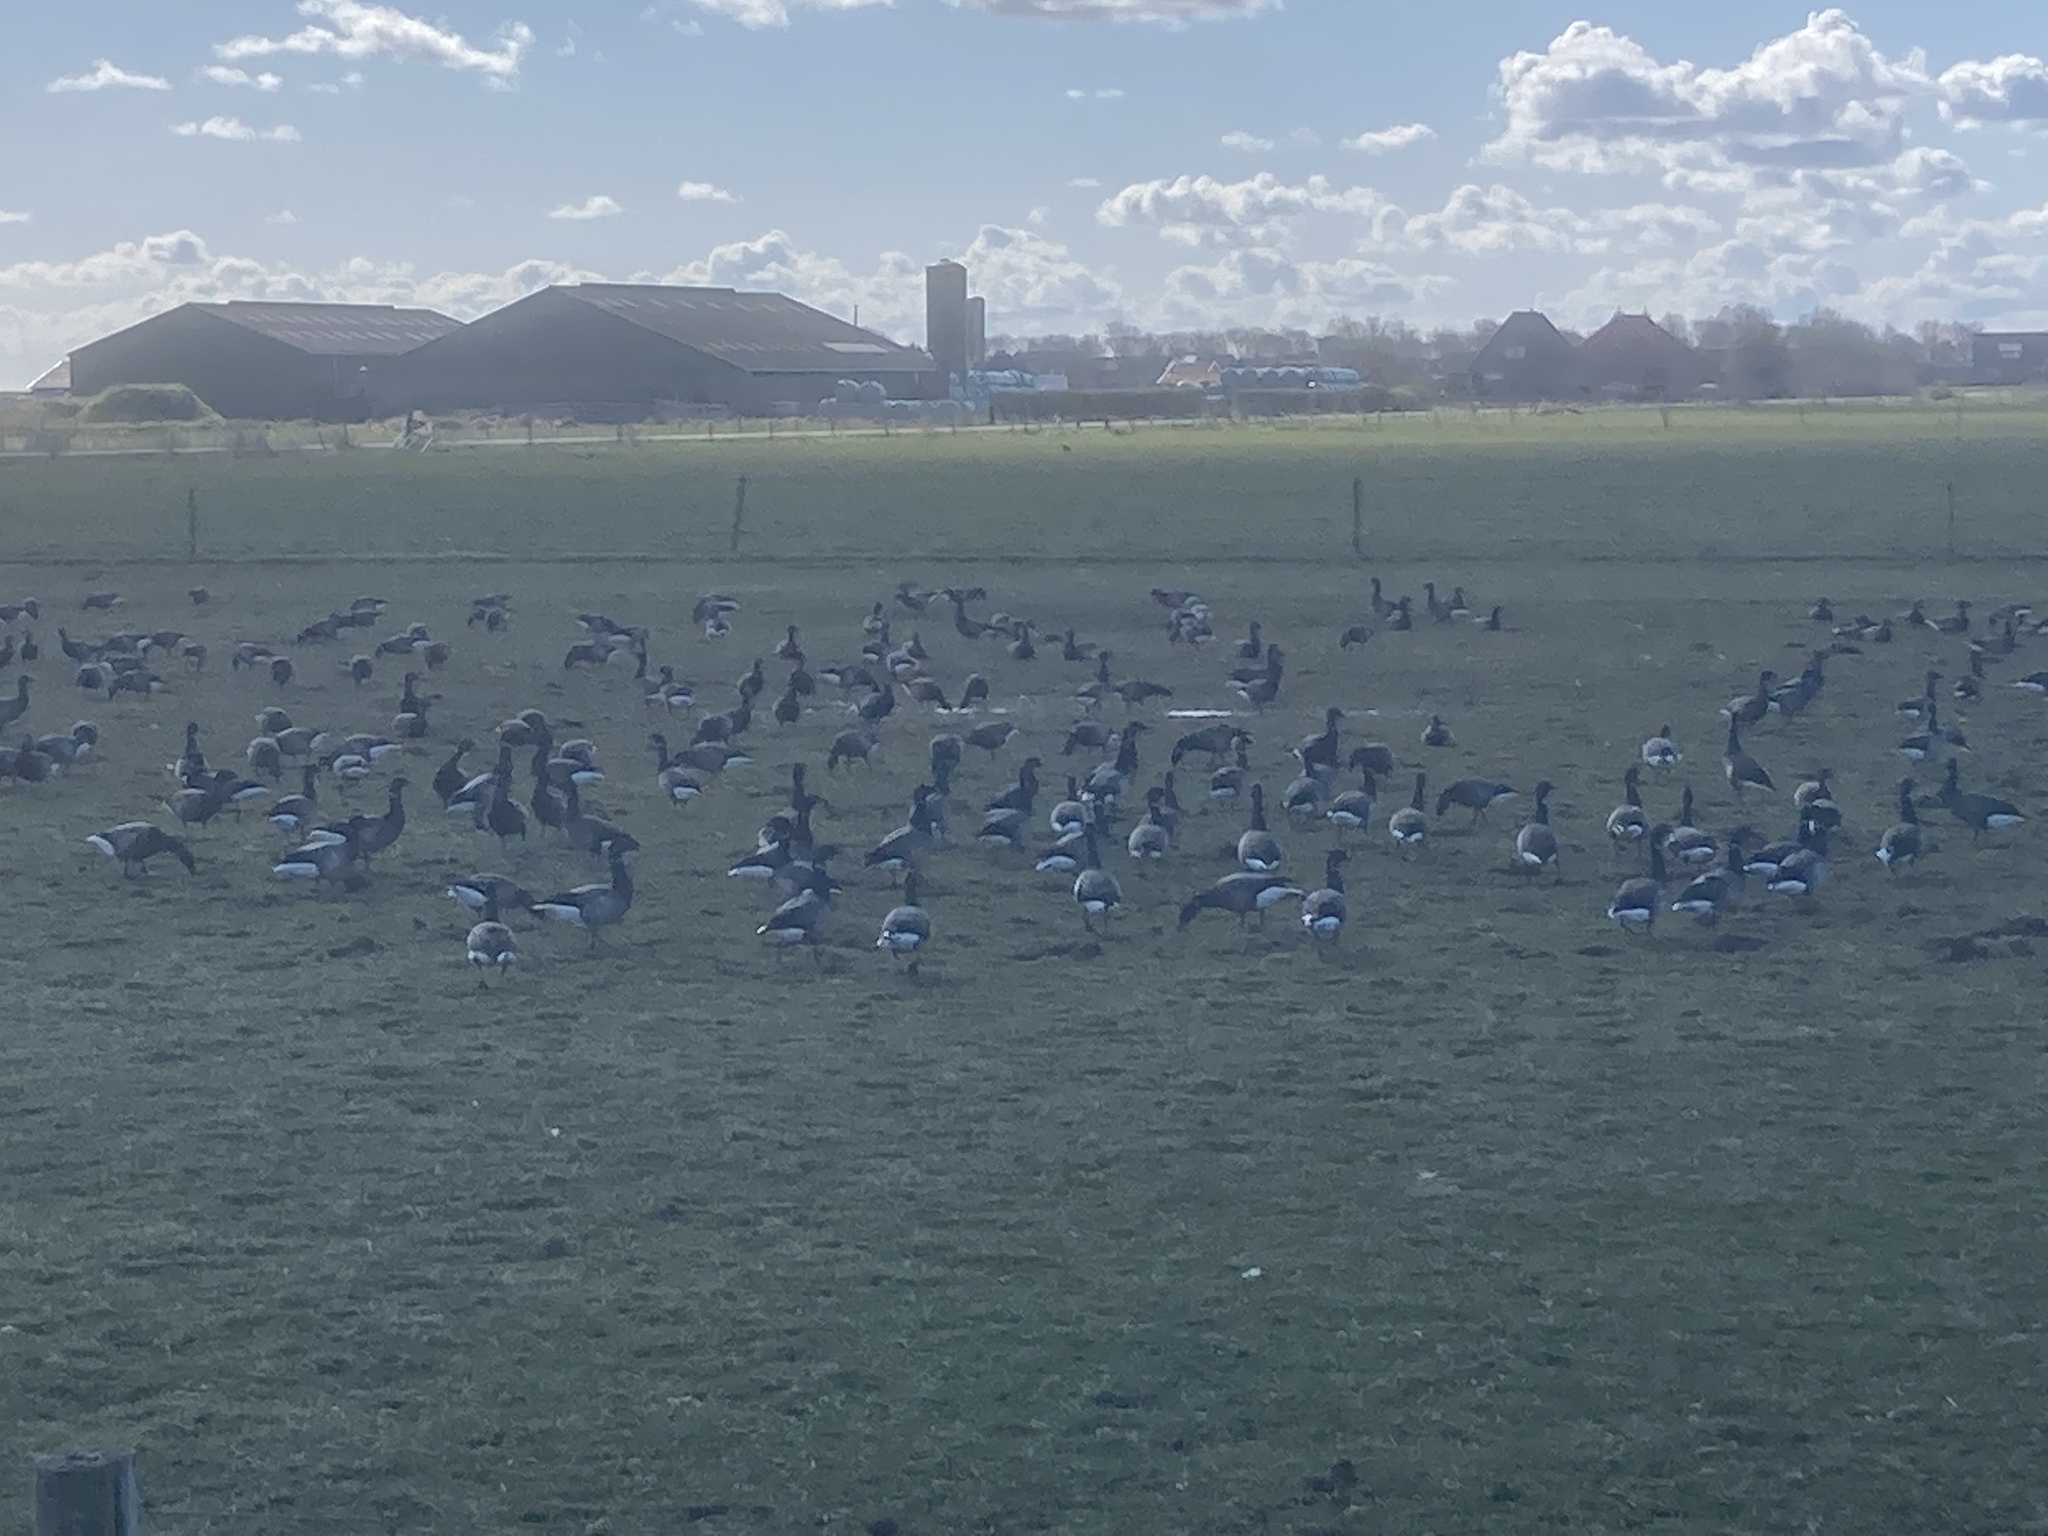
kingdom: Animalia
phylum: Chordata
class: Aves
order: Anseriformes
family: Anatidae
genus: Branta
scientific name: Branta bernicla
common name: Brant goose
